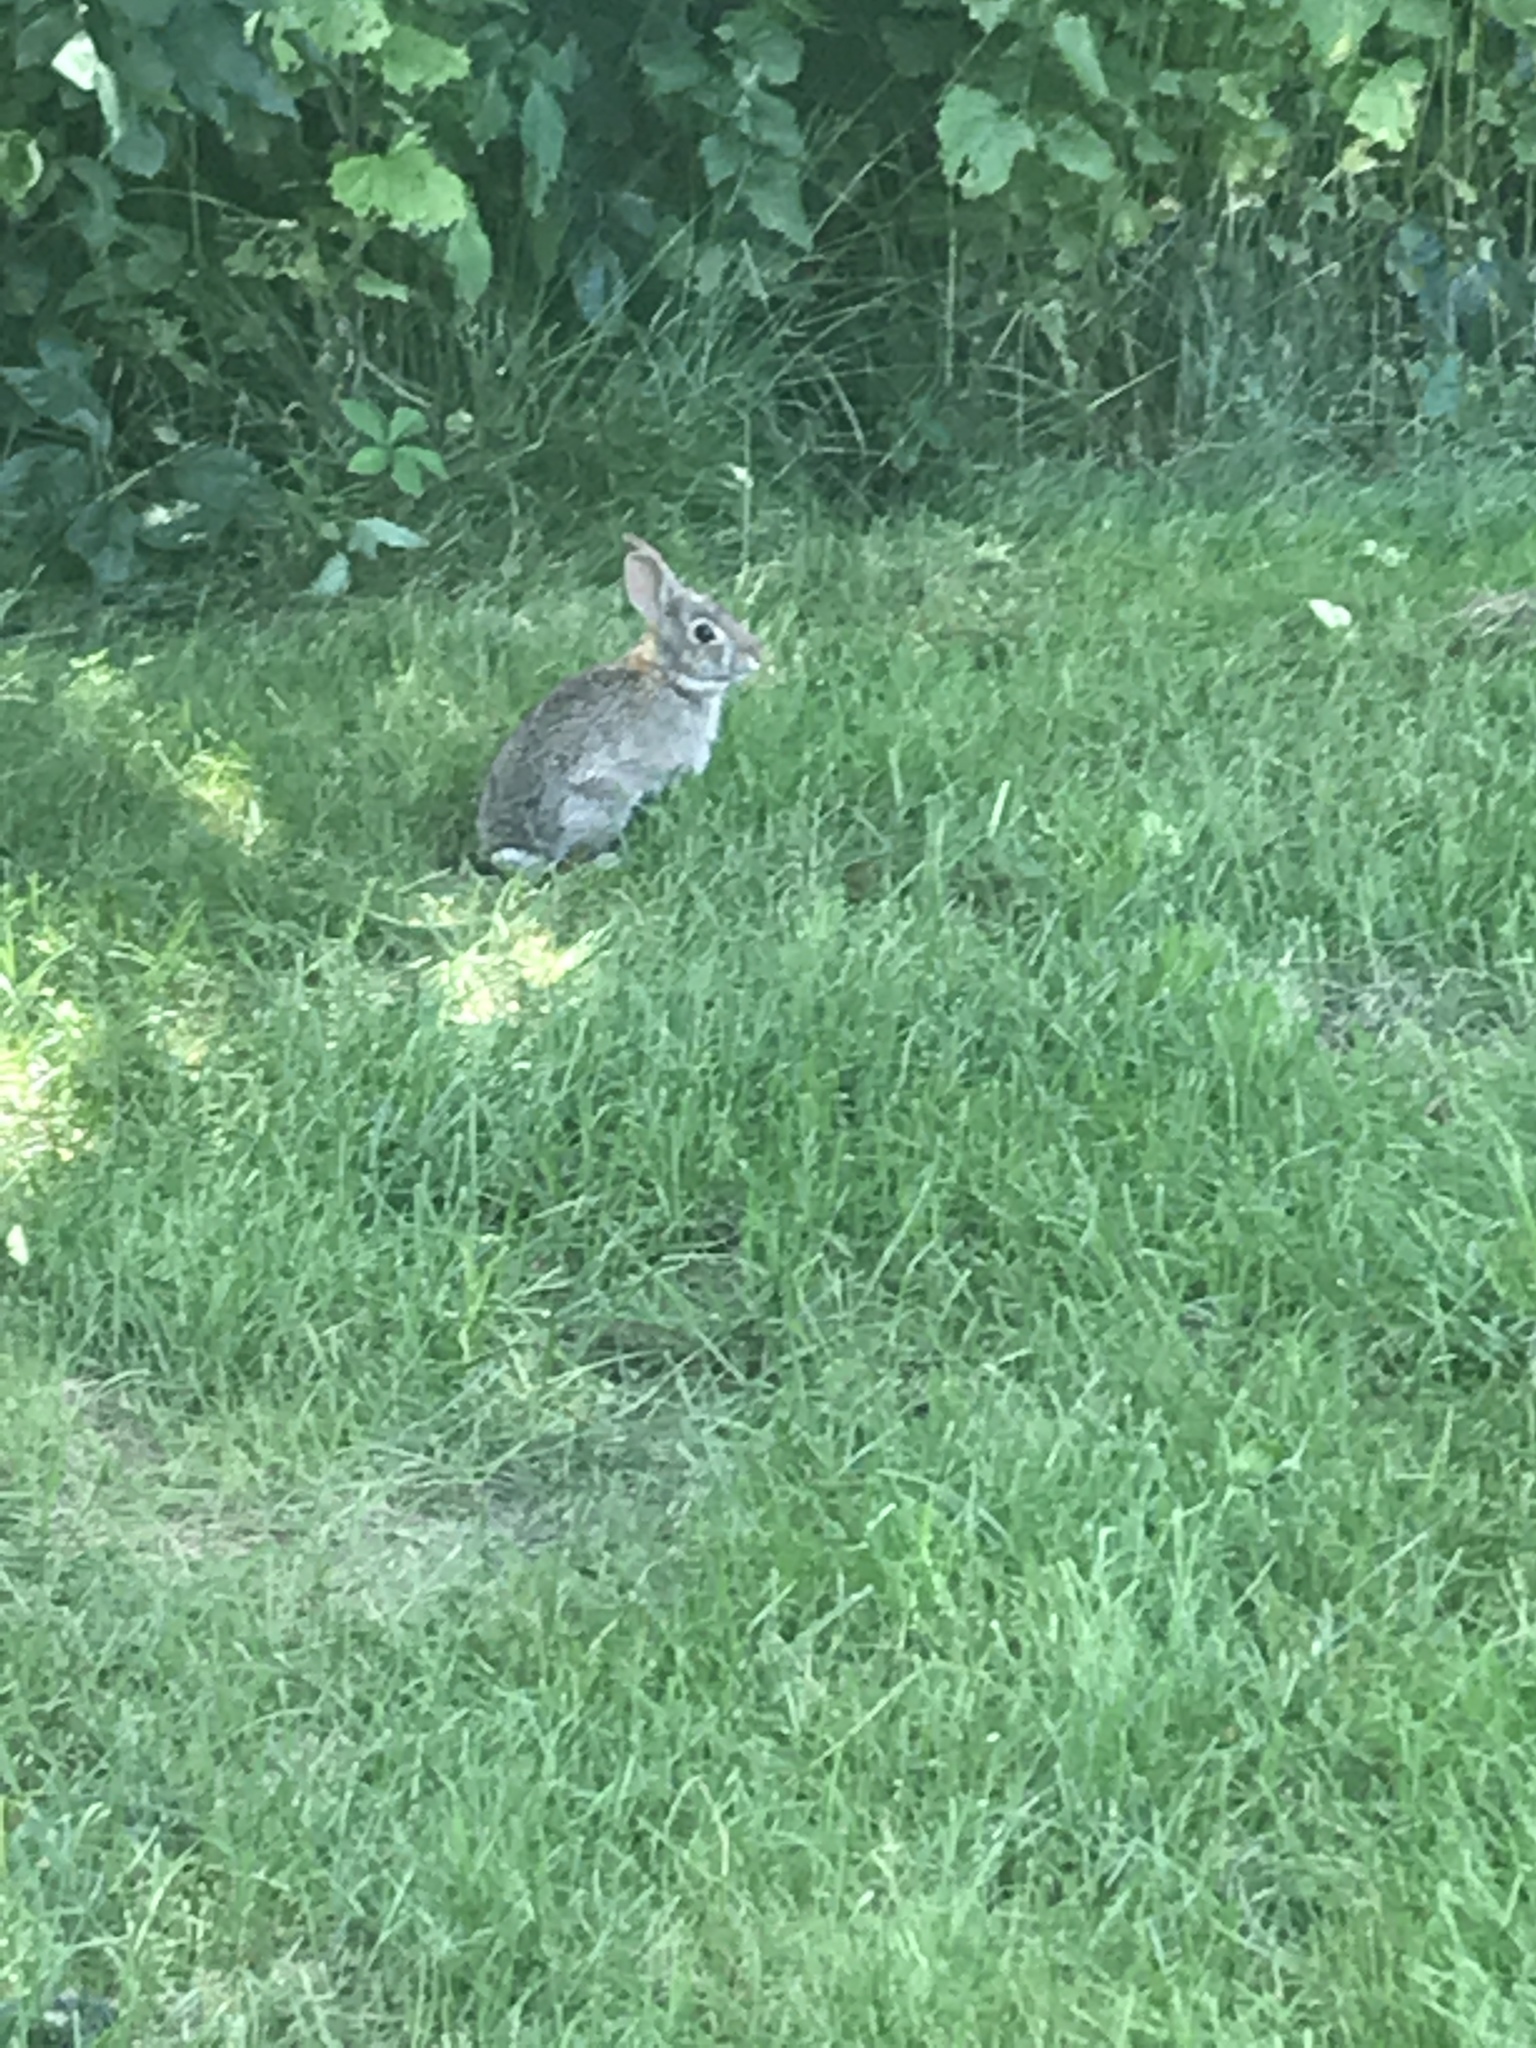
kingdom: Animalia
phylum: Chordata
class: Mammalia
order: Lagomorpha
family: Leporidae
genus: Sylvilagus
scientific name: Sylvilagus floridanus
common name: Eastern cottontail
